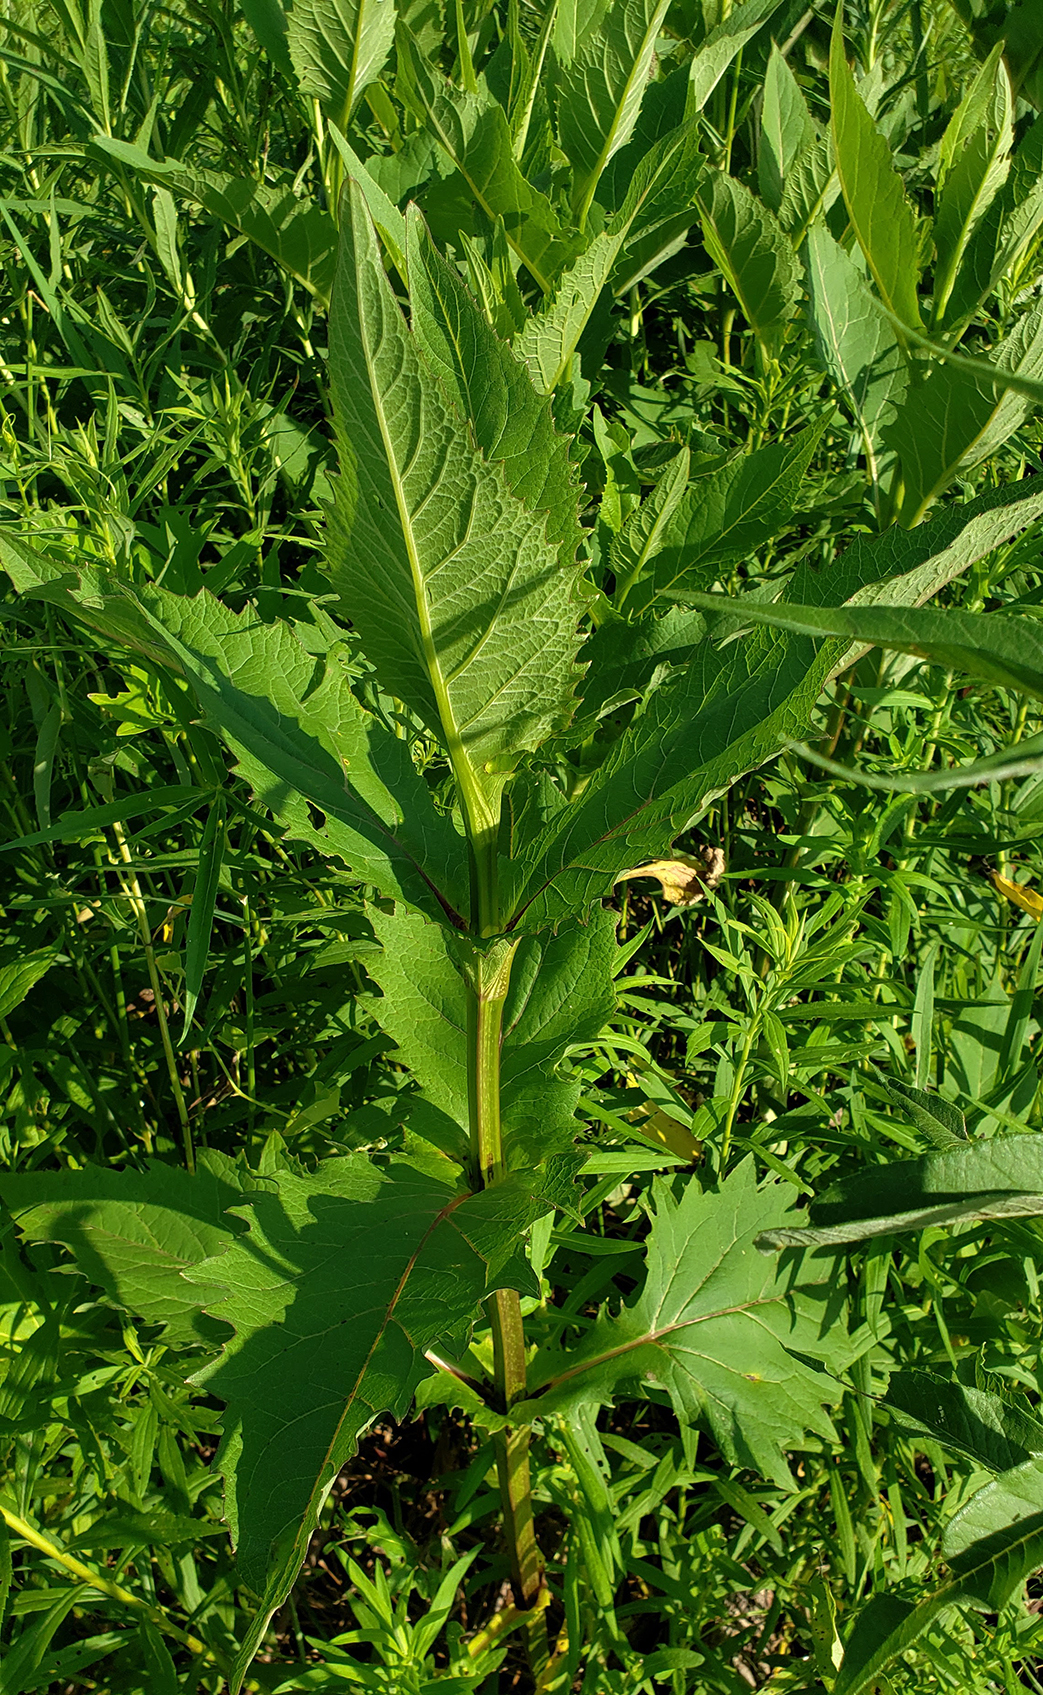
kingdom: Plantae
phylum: Tracheophyta
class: Magnoliopsida
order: Asterales
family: Asteraceae
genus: Silphium
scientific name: Silphium perfoliatum
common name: Cup-plant
